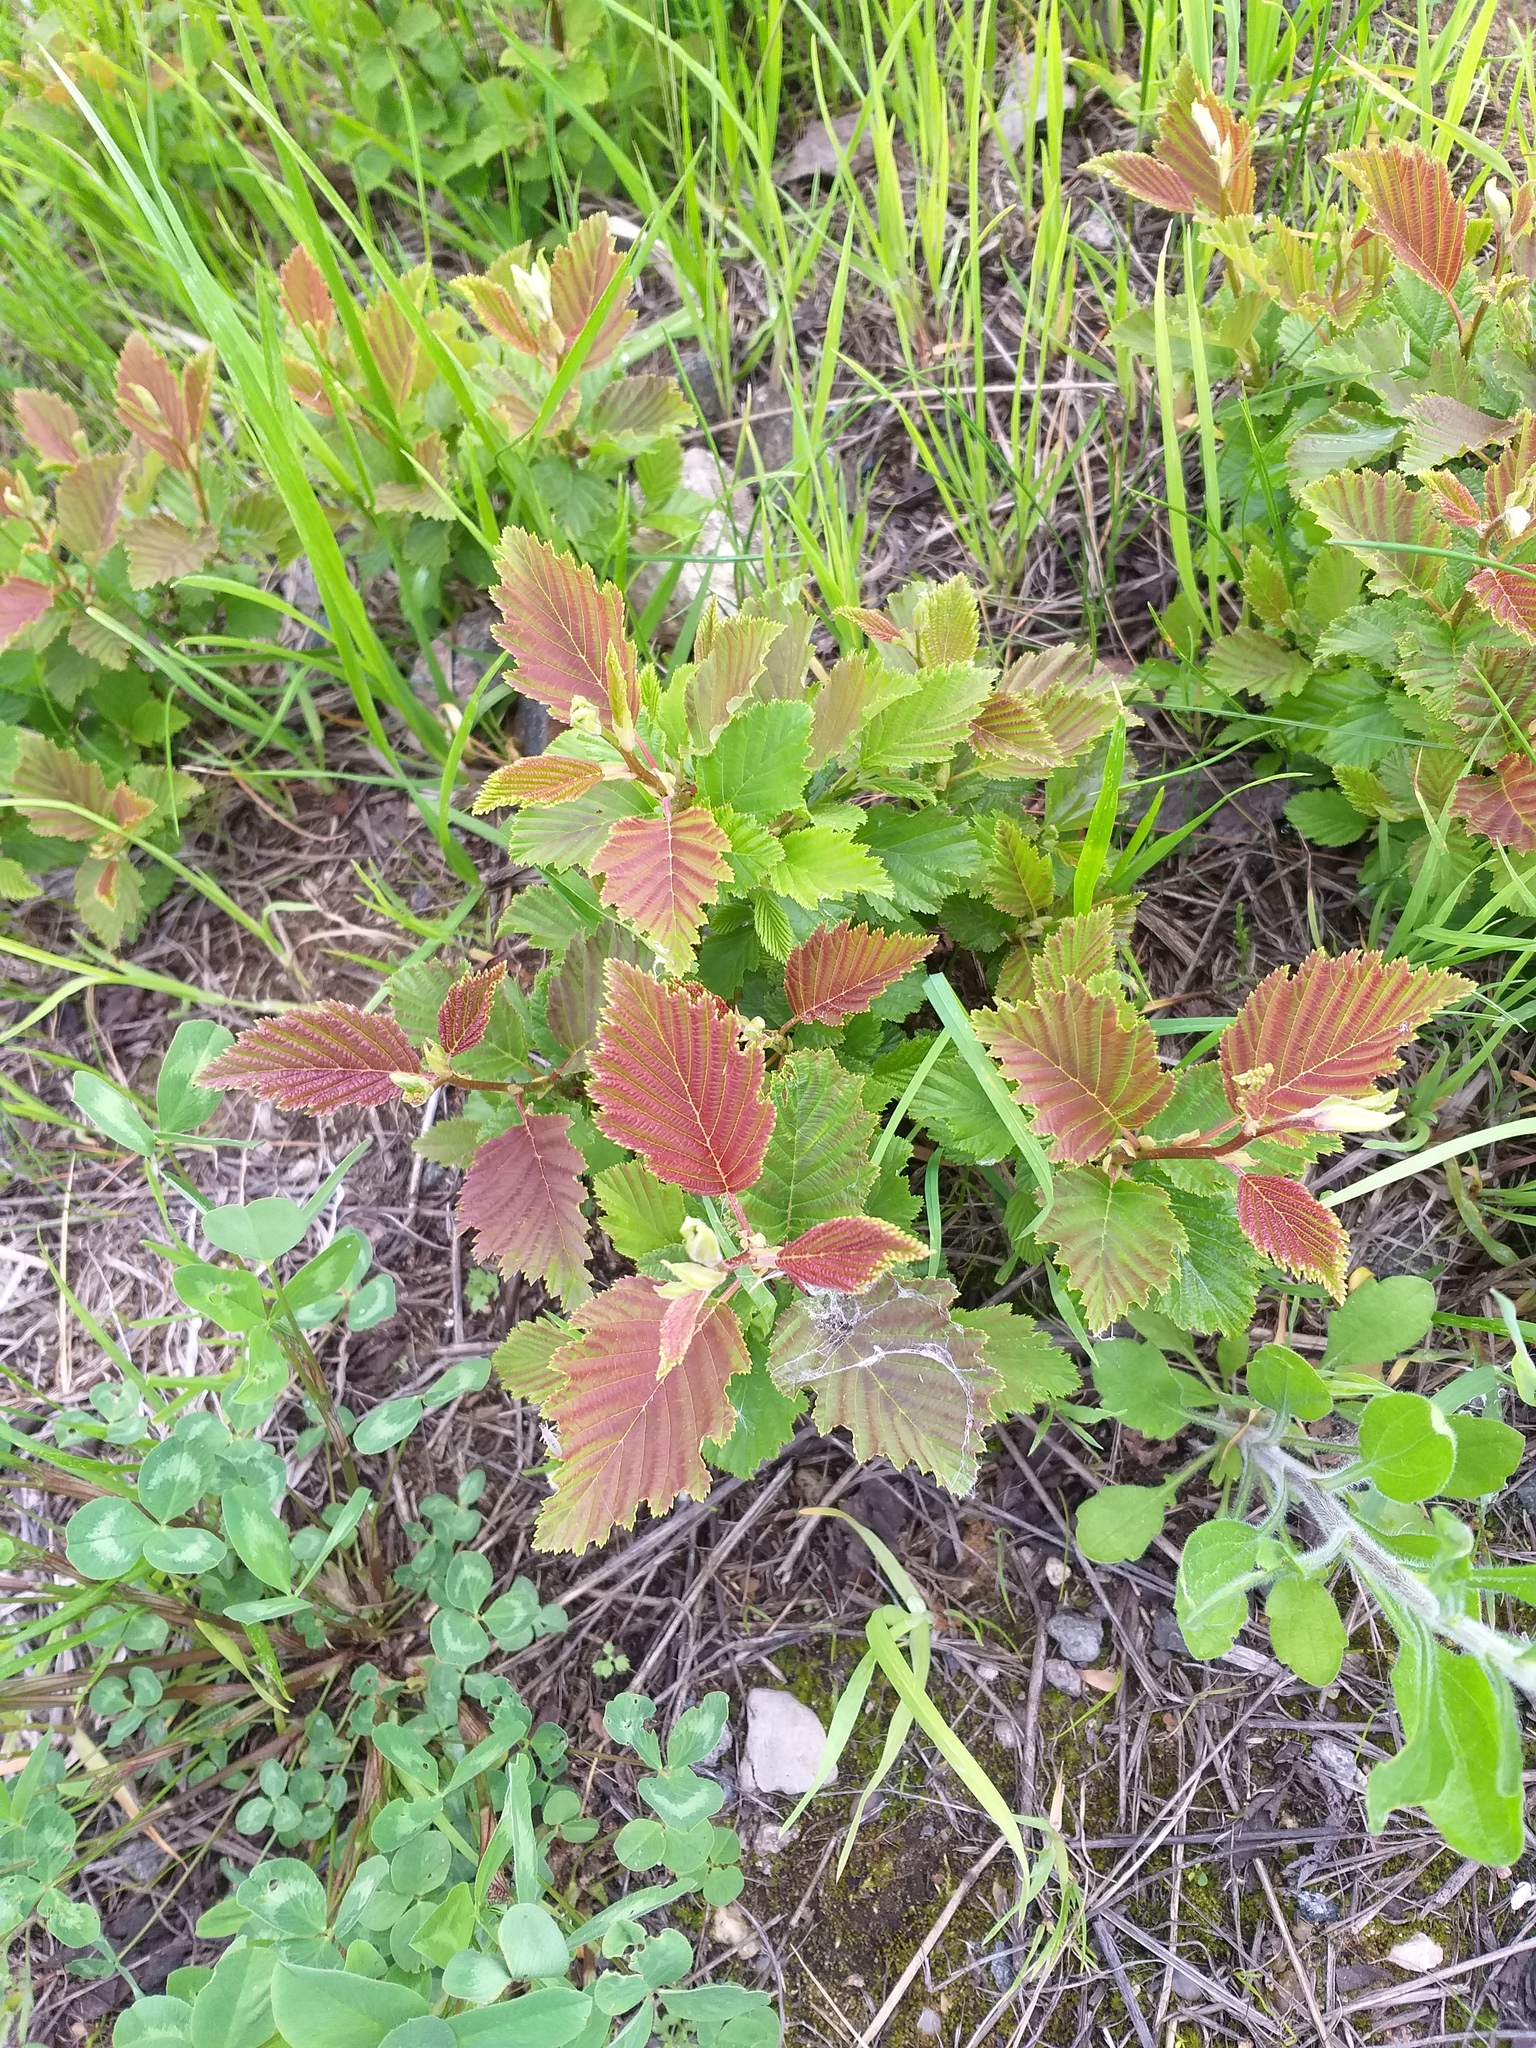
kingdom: Plantae
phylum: Tracheophyta
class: Magnoliopsida
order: Fagales
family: Betulaceae
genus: Alnus
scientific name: Alnus incana
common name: Grey alder
